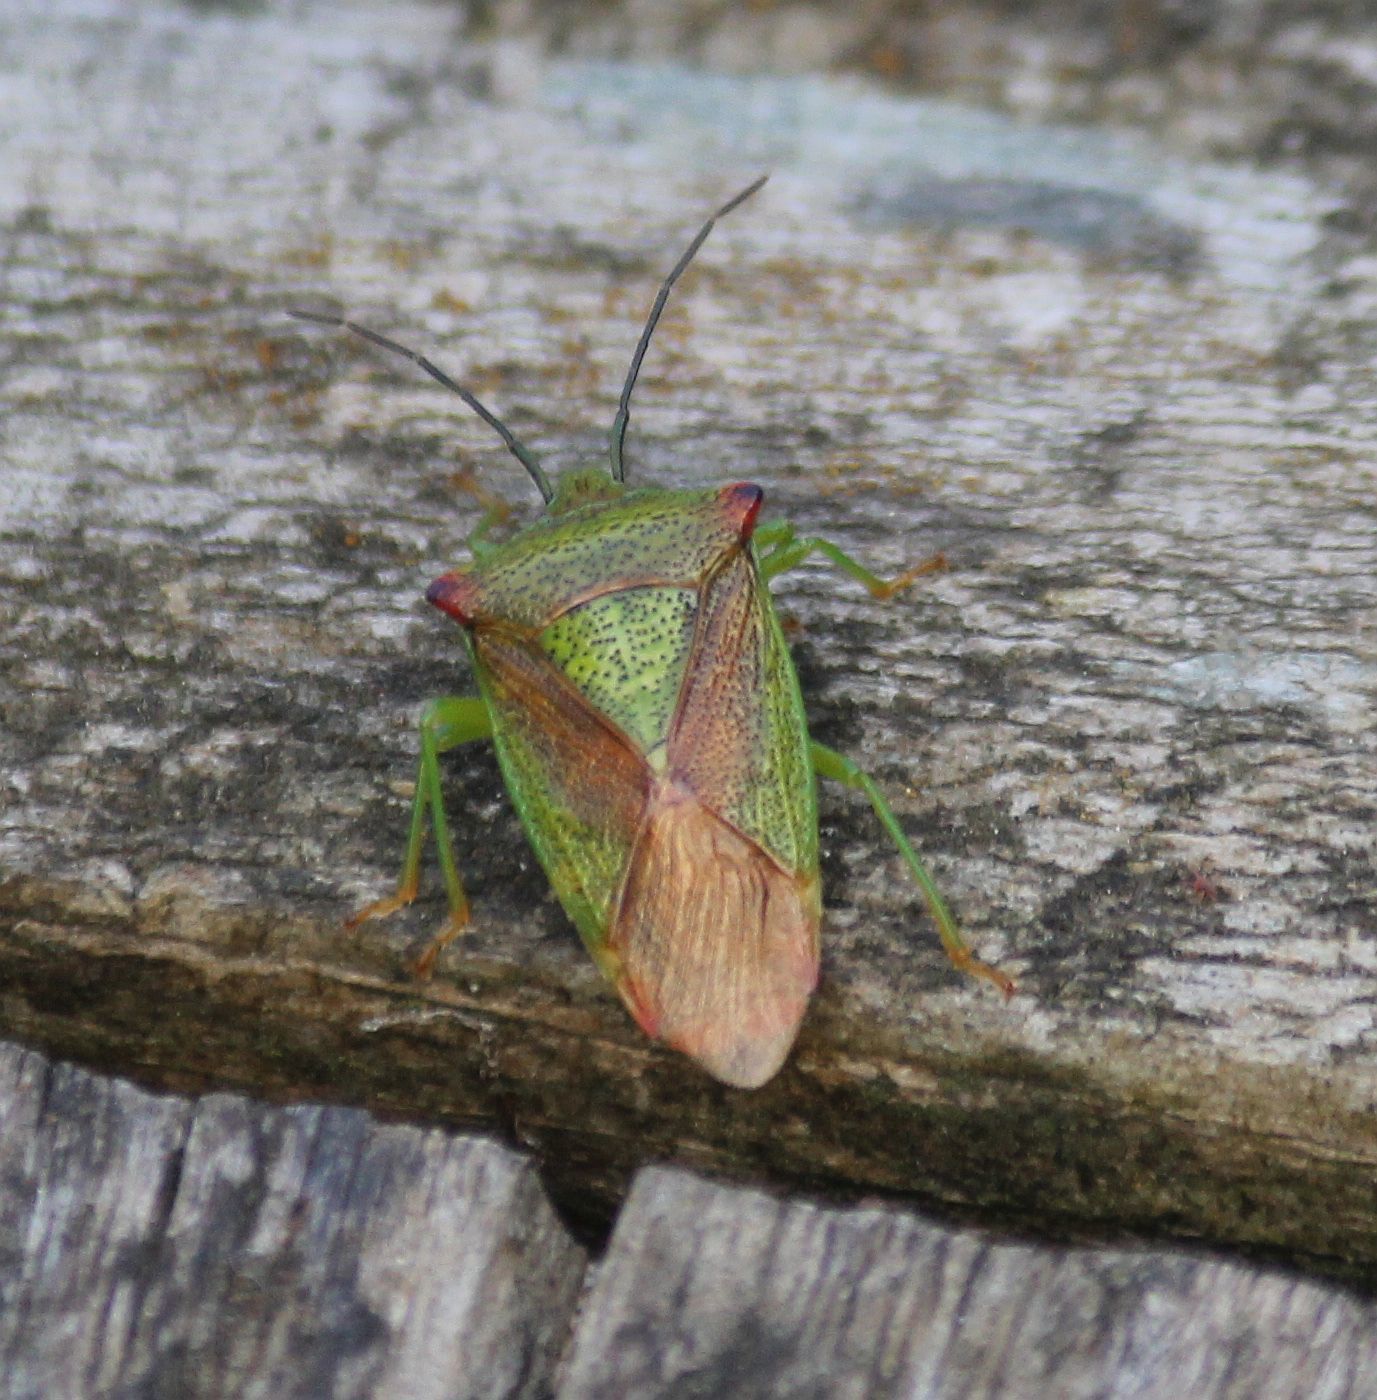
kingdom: Animalia
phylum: Arthropoda
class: Insecta
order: Hemiptera
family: Acanthosomatidae
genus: Acanthosoma
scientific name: Acanthosoma haemorrhoidale
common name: Hawthorn shieldbug
